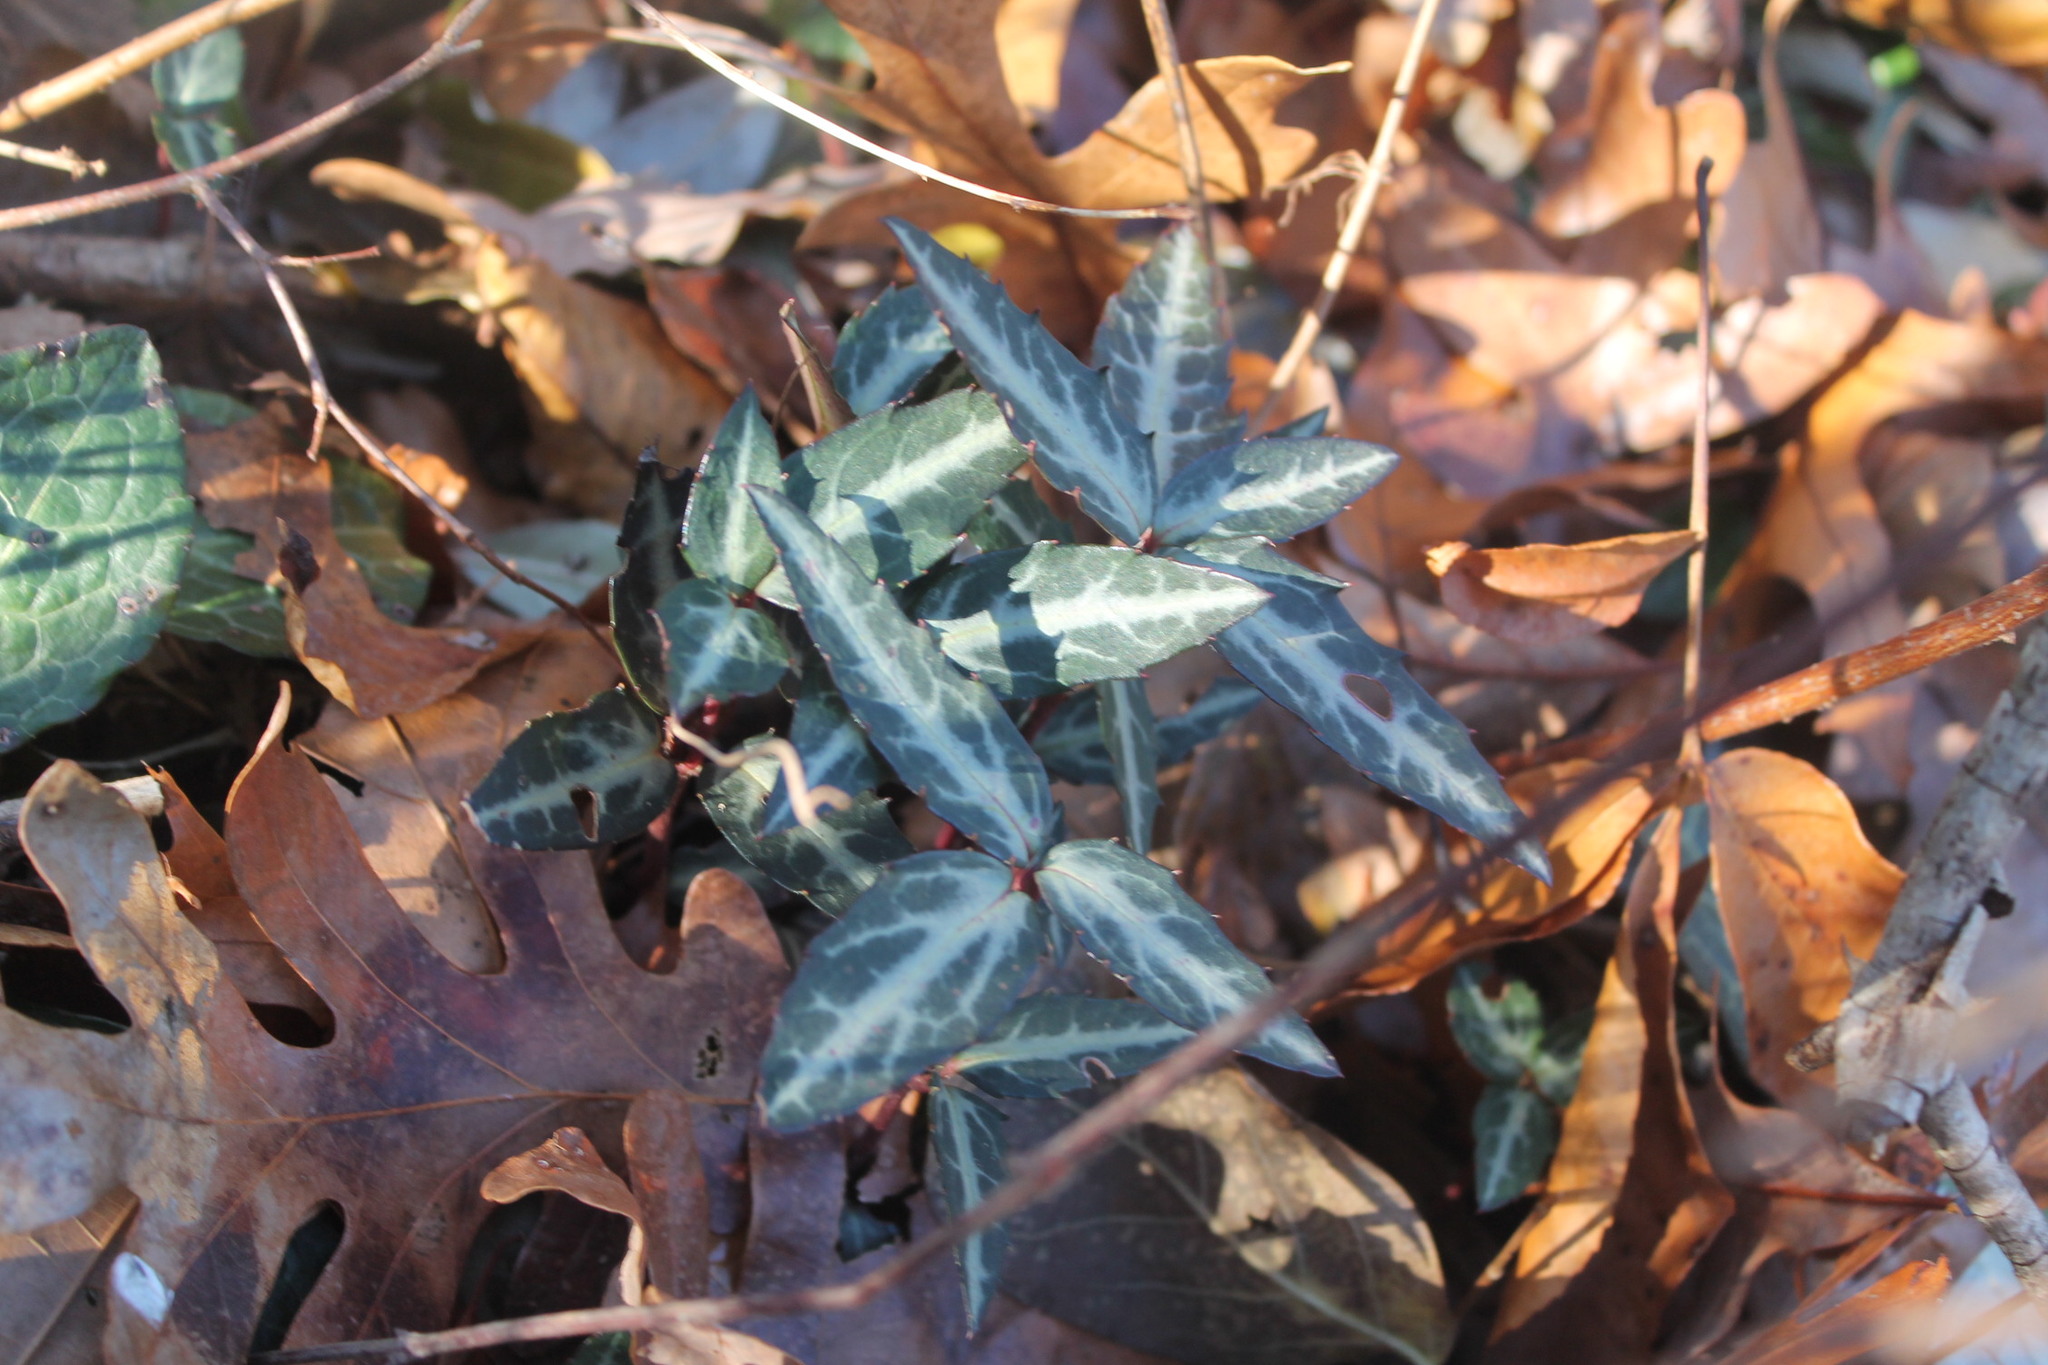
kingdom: Plantae
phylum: Tracheophyta
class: Magnoliopsida
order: Ericales
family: Ericaceae
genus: Chimaphila
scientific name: Chimaphila maculata
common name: Spotted pipsissewa
